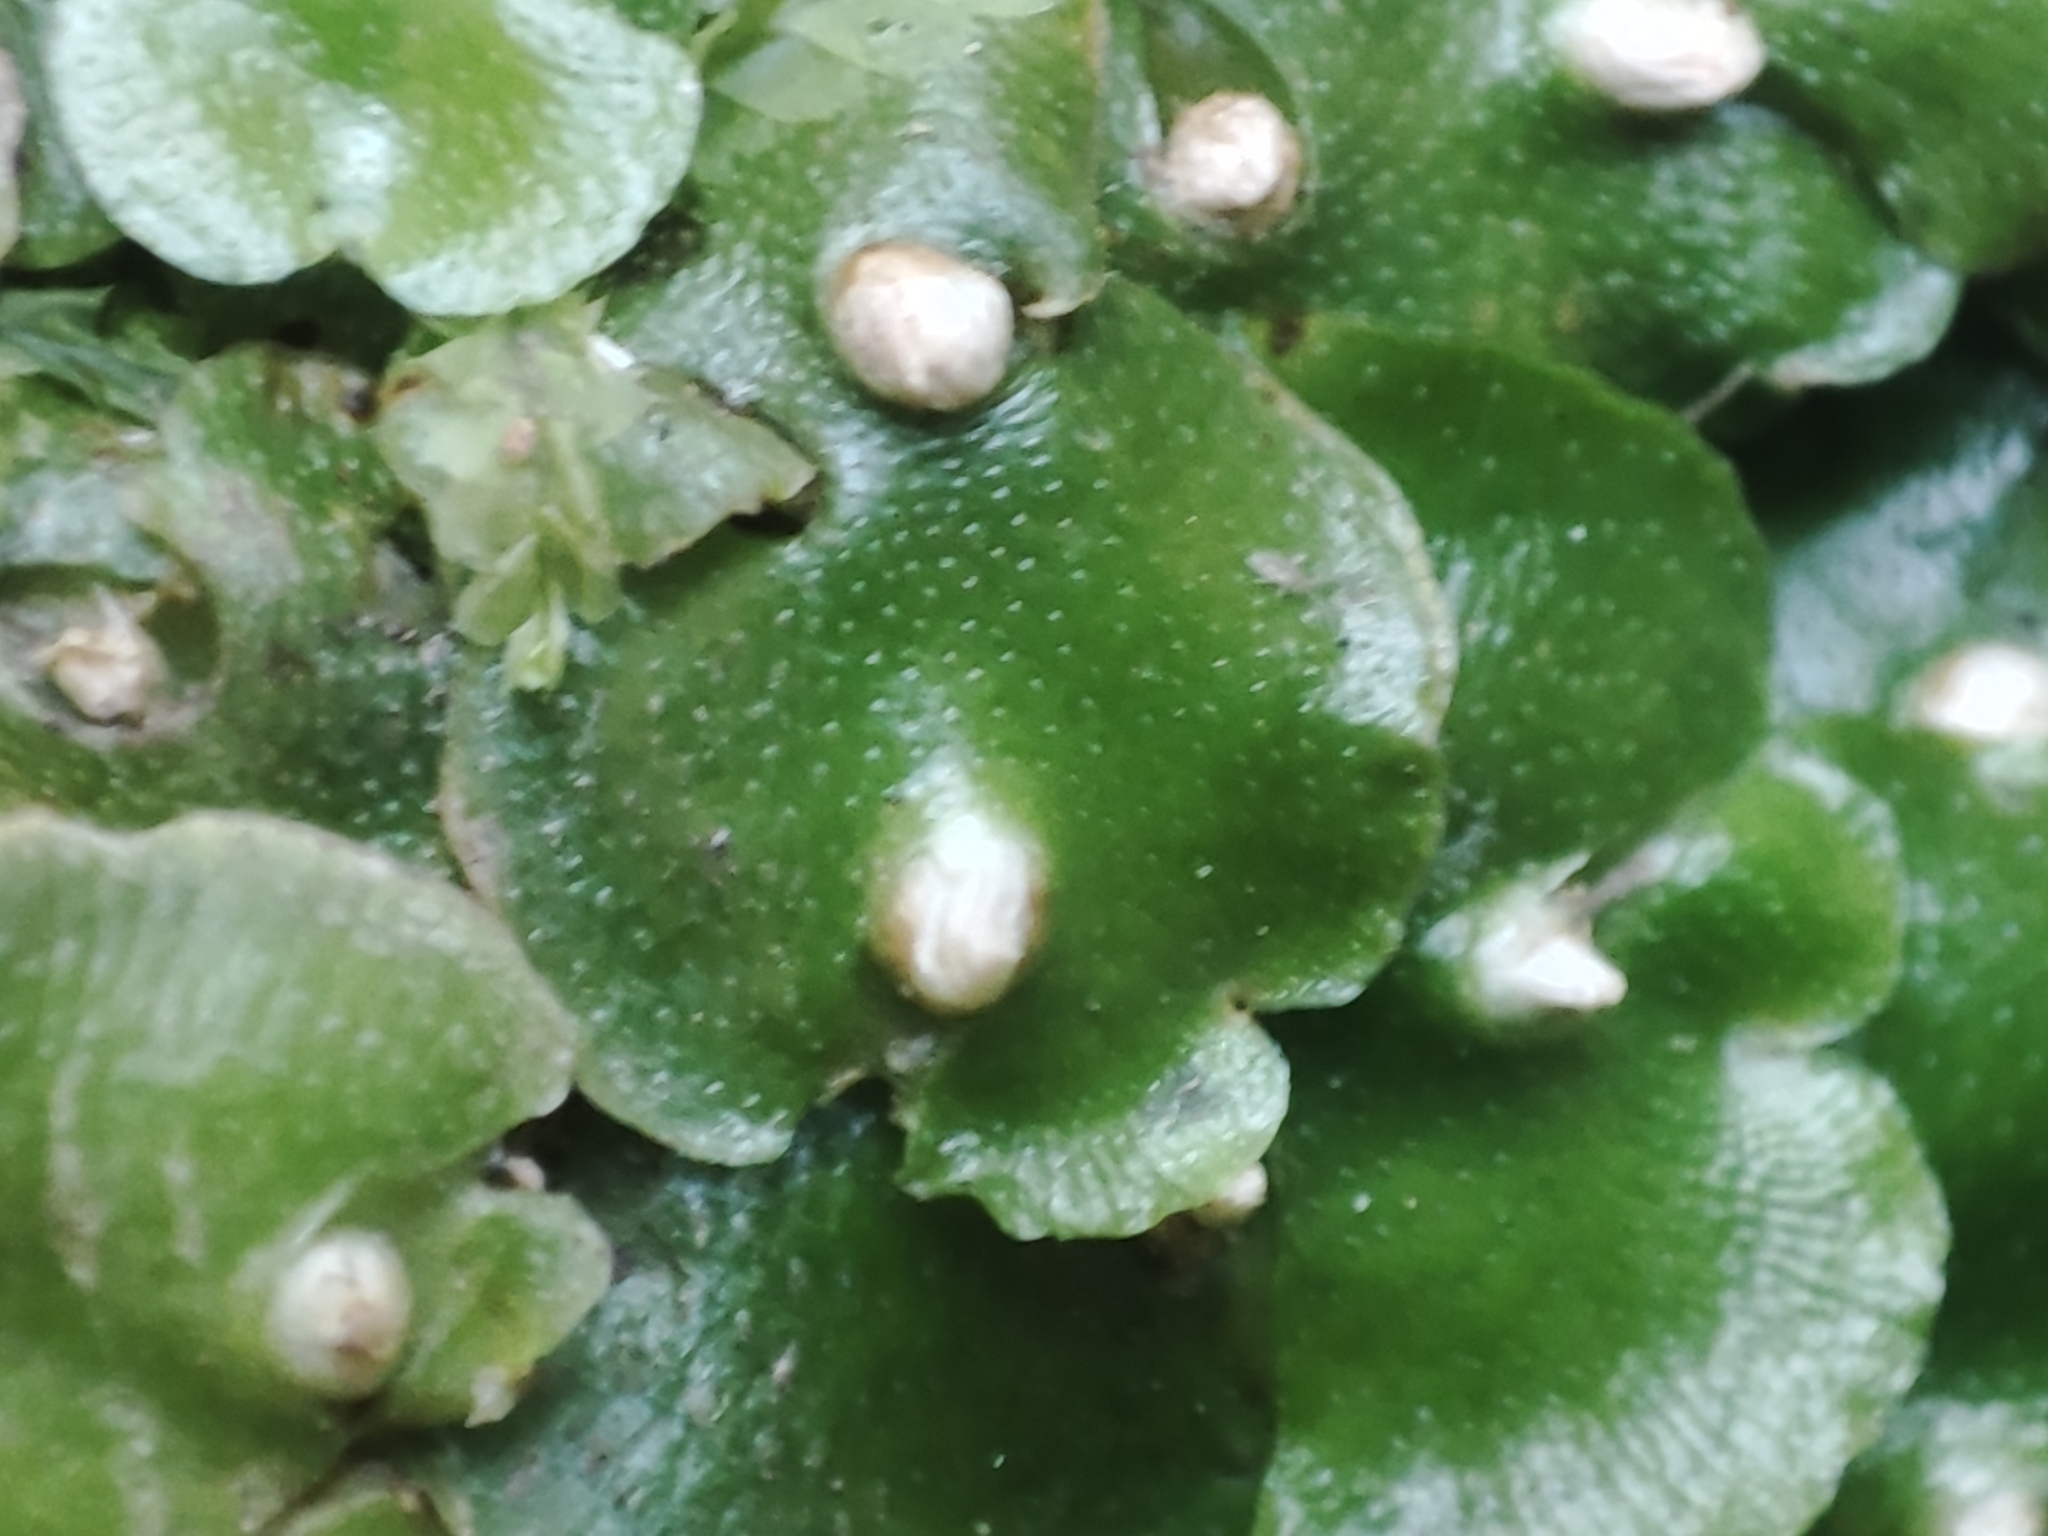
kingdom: Plantae
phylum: Marchantiophyta
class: Marchantiopsida
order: Lunulariales
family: Lunulariaceae
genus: Lunularia
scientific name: Lunularia cruciata
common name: Crescent-cup liverwort
